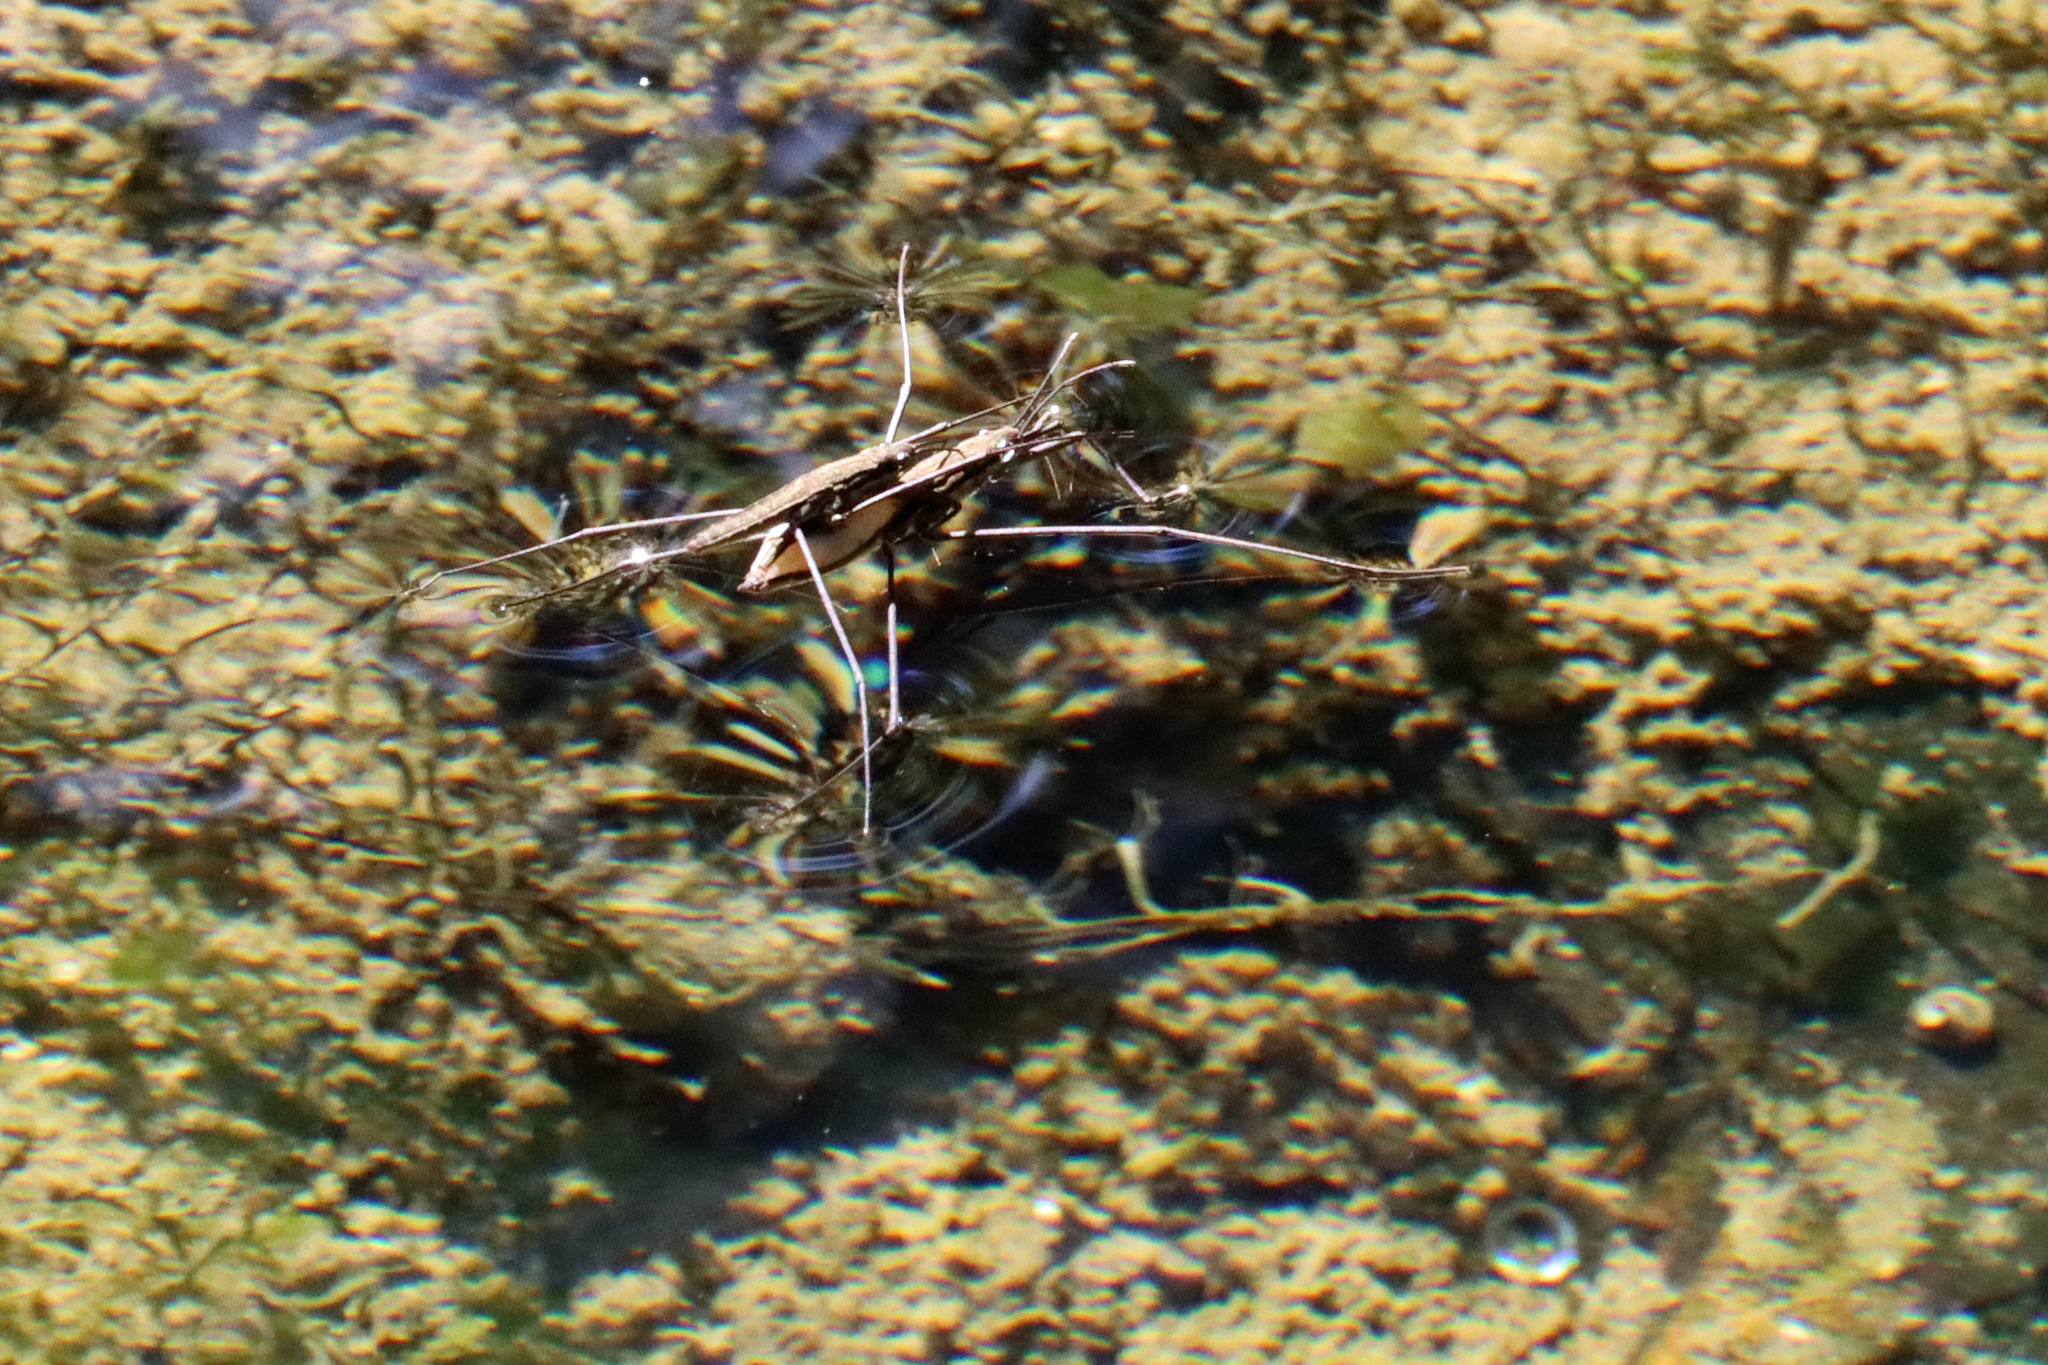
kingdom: Animalia
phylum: Arthropoda
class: Insecta
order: Hemiptera
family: Gerridae
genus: Aquarius
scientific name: Aquarius najas
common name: River skater
